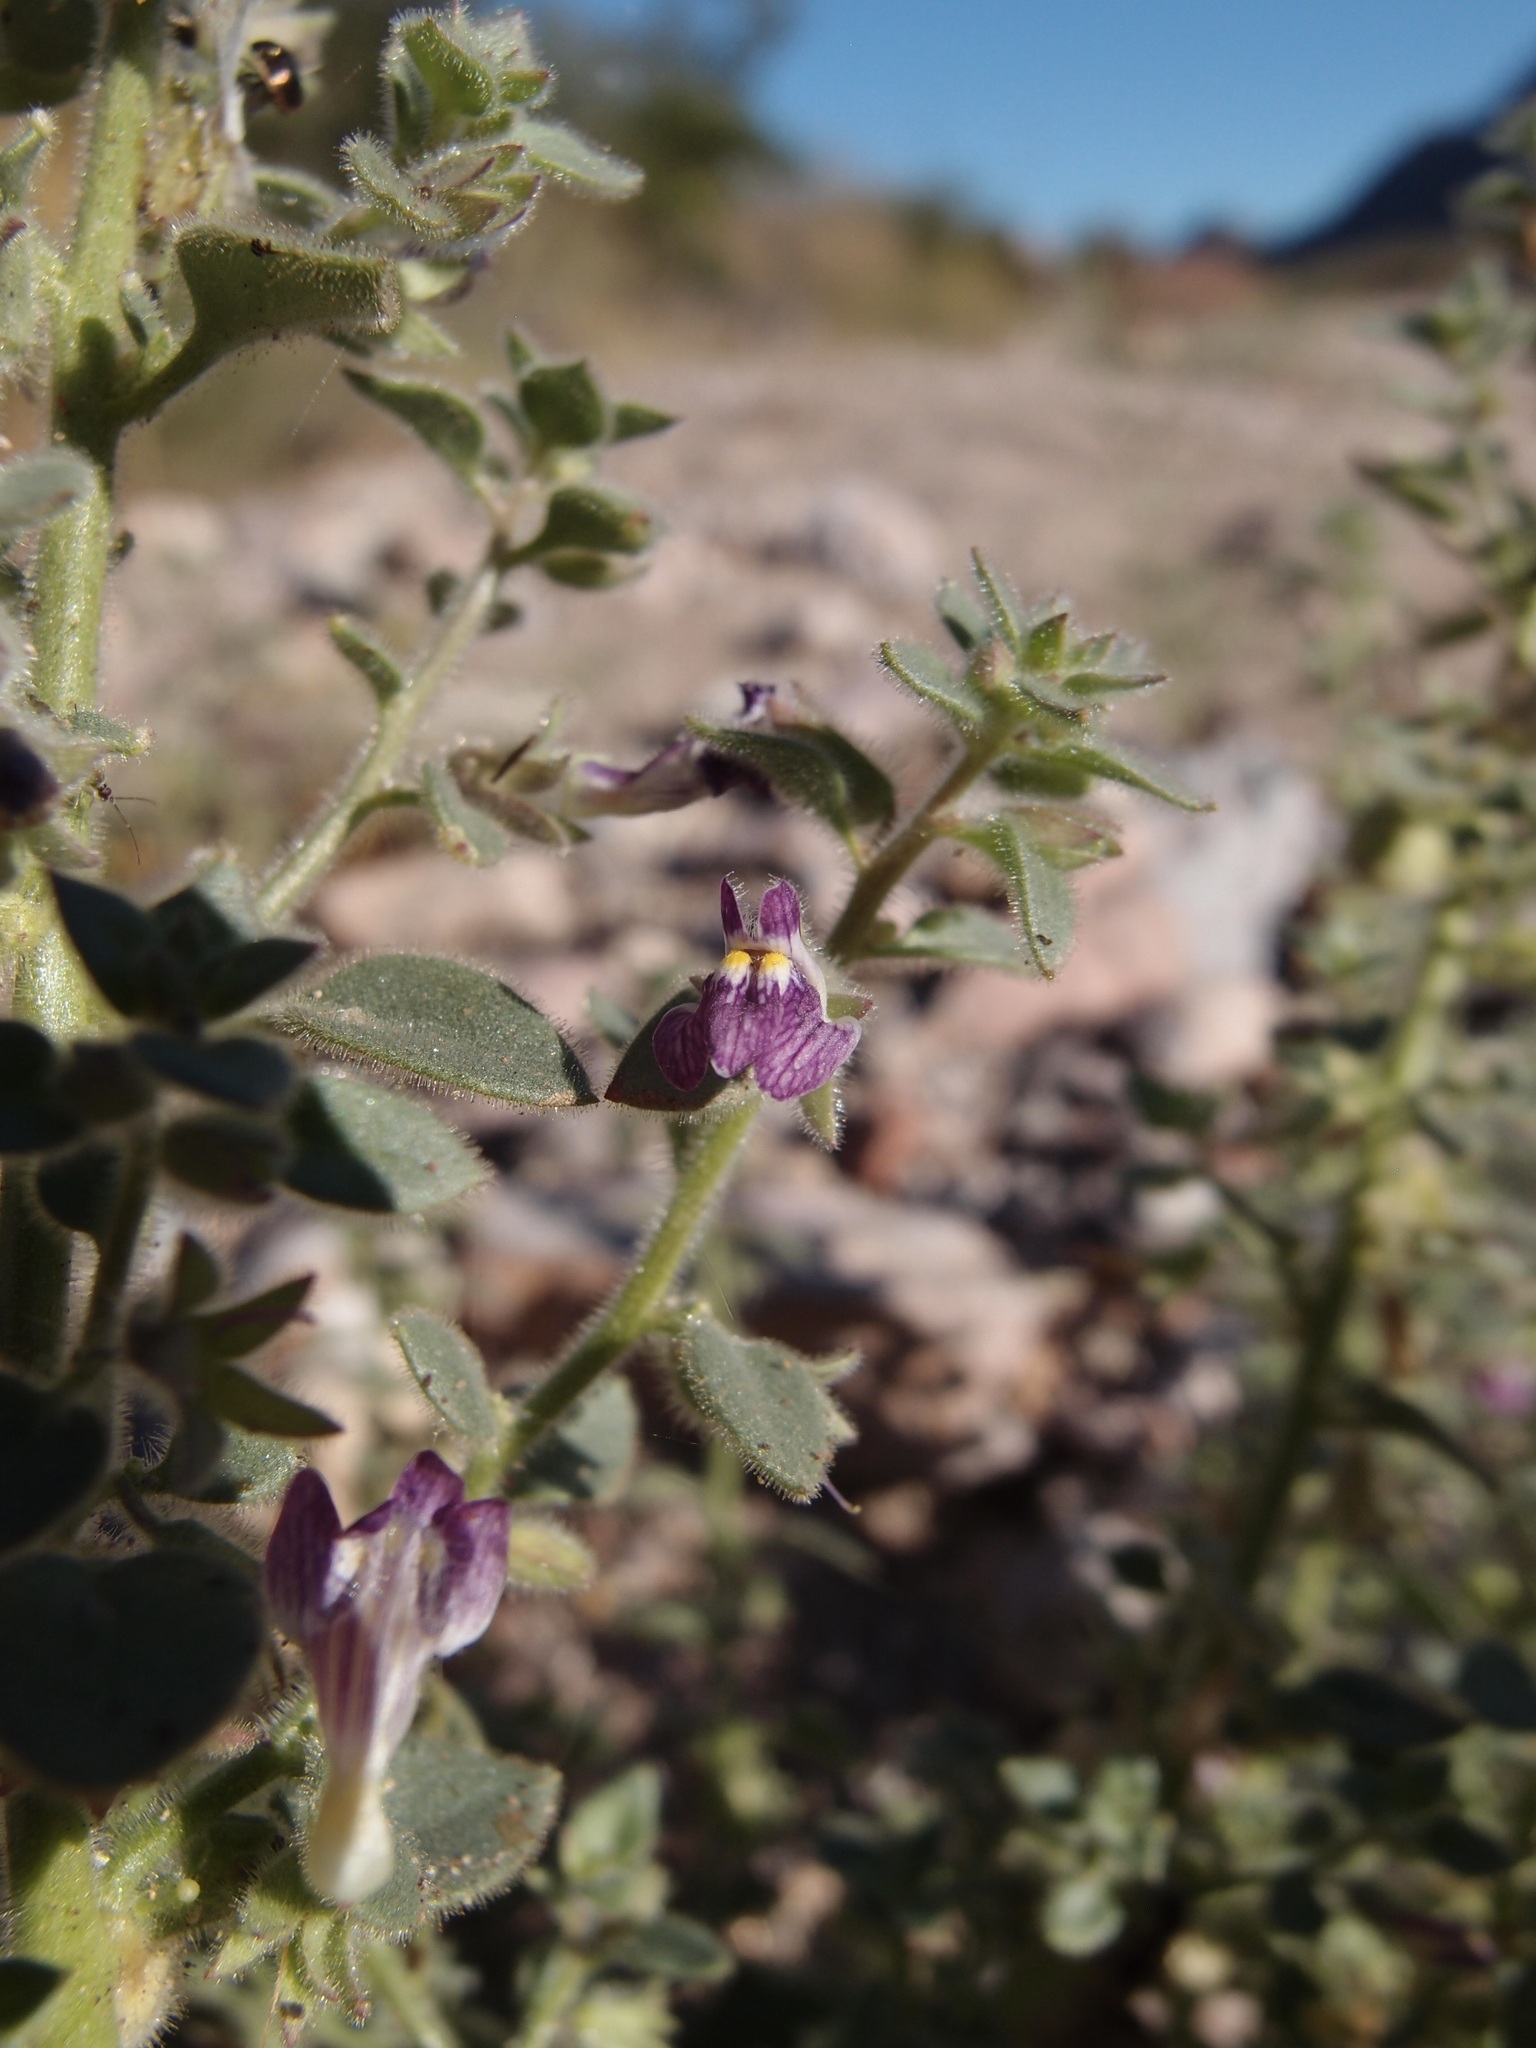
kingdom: Plantae
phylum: Tracheophyta
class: Magnoliopsida
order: Lamiales
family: Plantaginaceae
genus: Pseudorontium
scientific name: Pseudorontium cyathiferum
